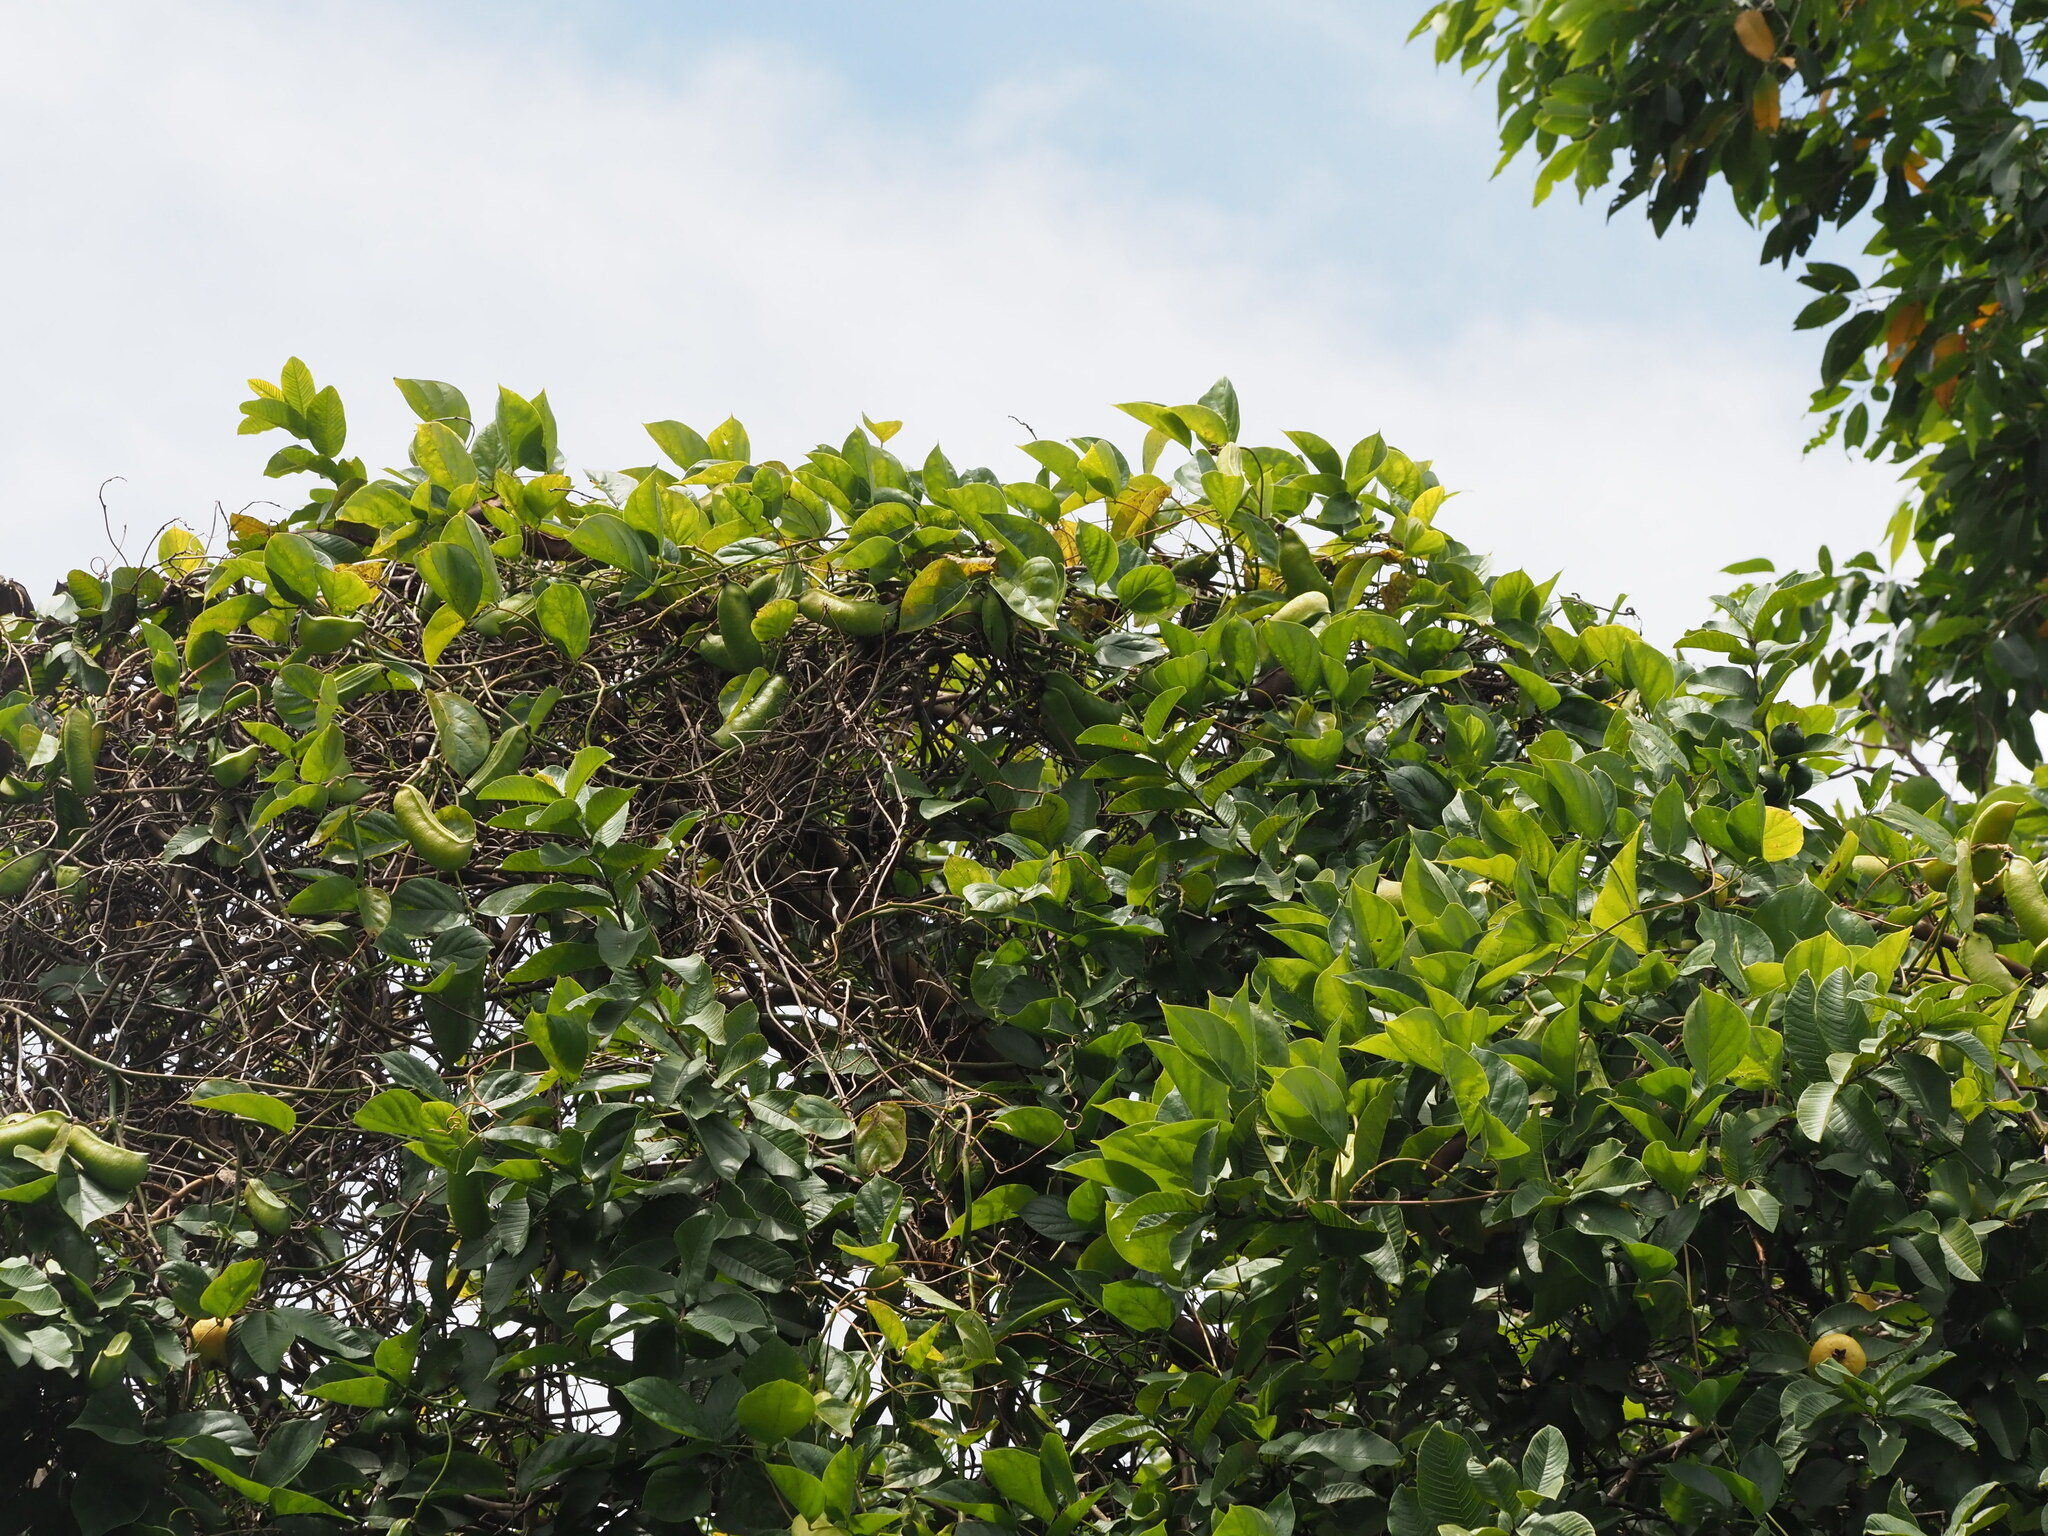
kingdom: Plantae
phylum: Tracheophyta
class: Magnoliopsida
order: Fabales
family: Fabaceae
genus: Canavalia
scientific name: Canavalia cathartica
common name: Maunaloa
